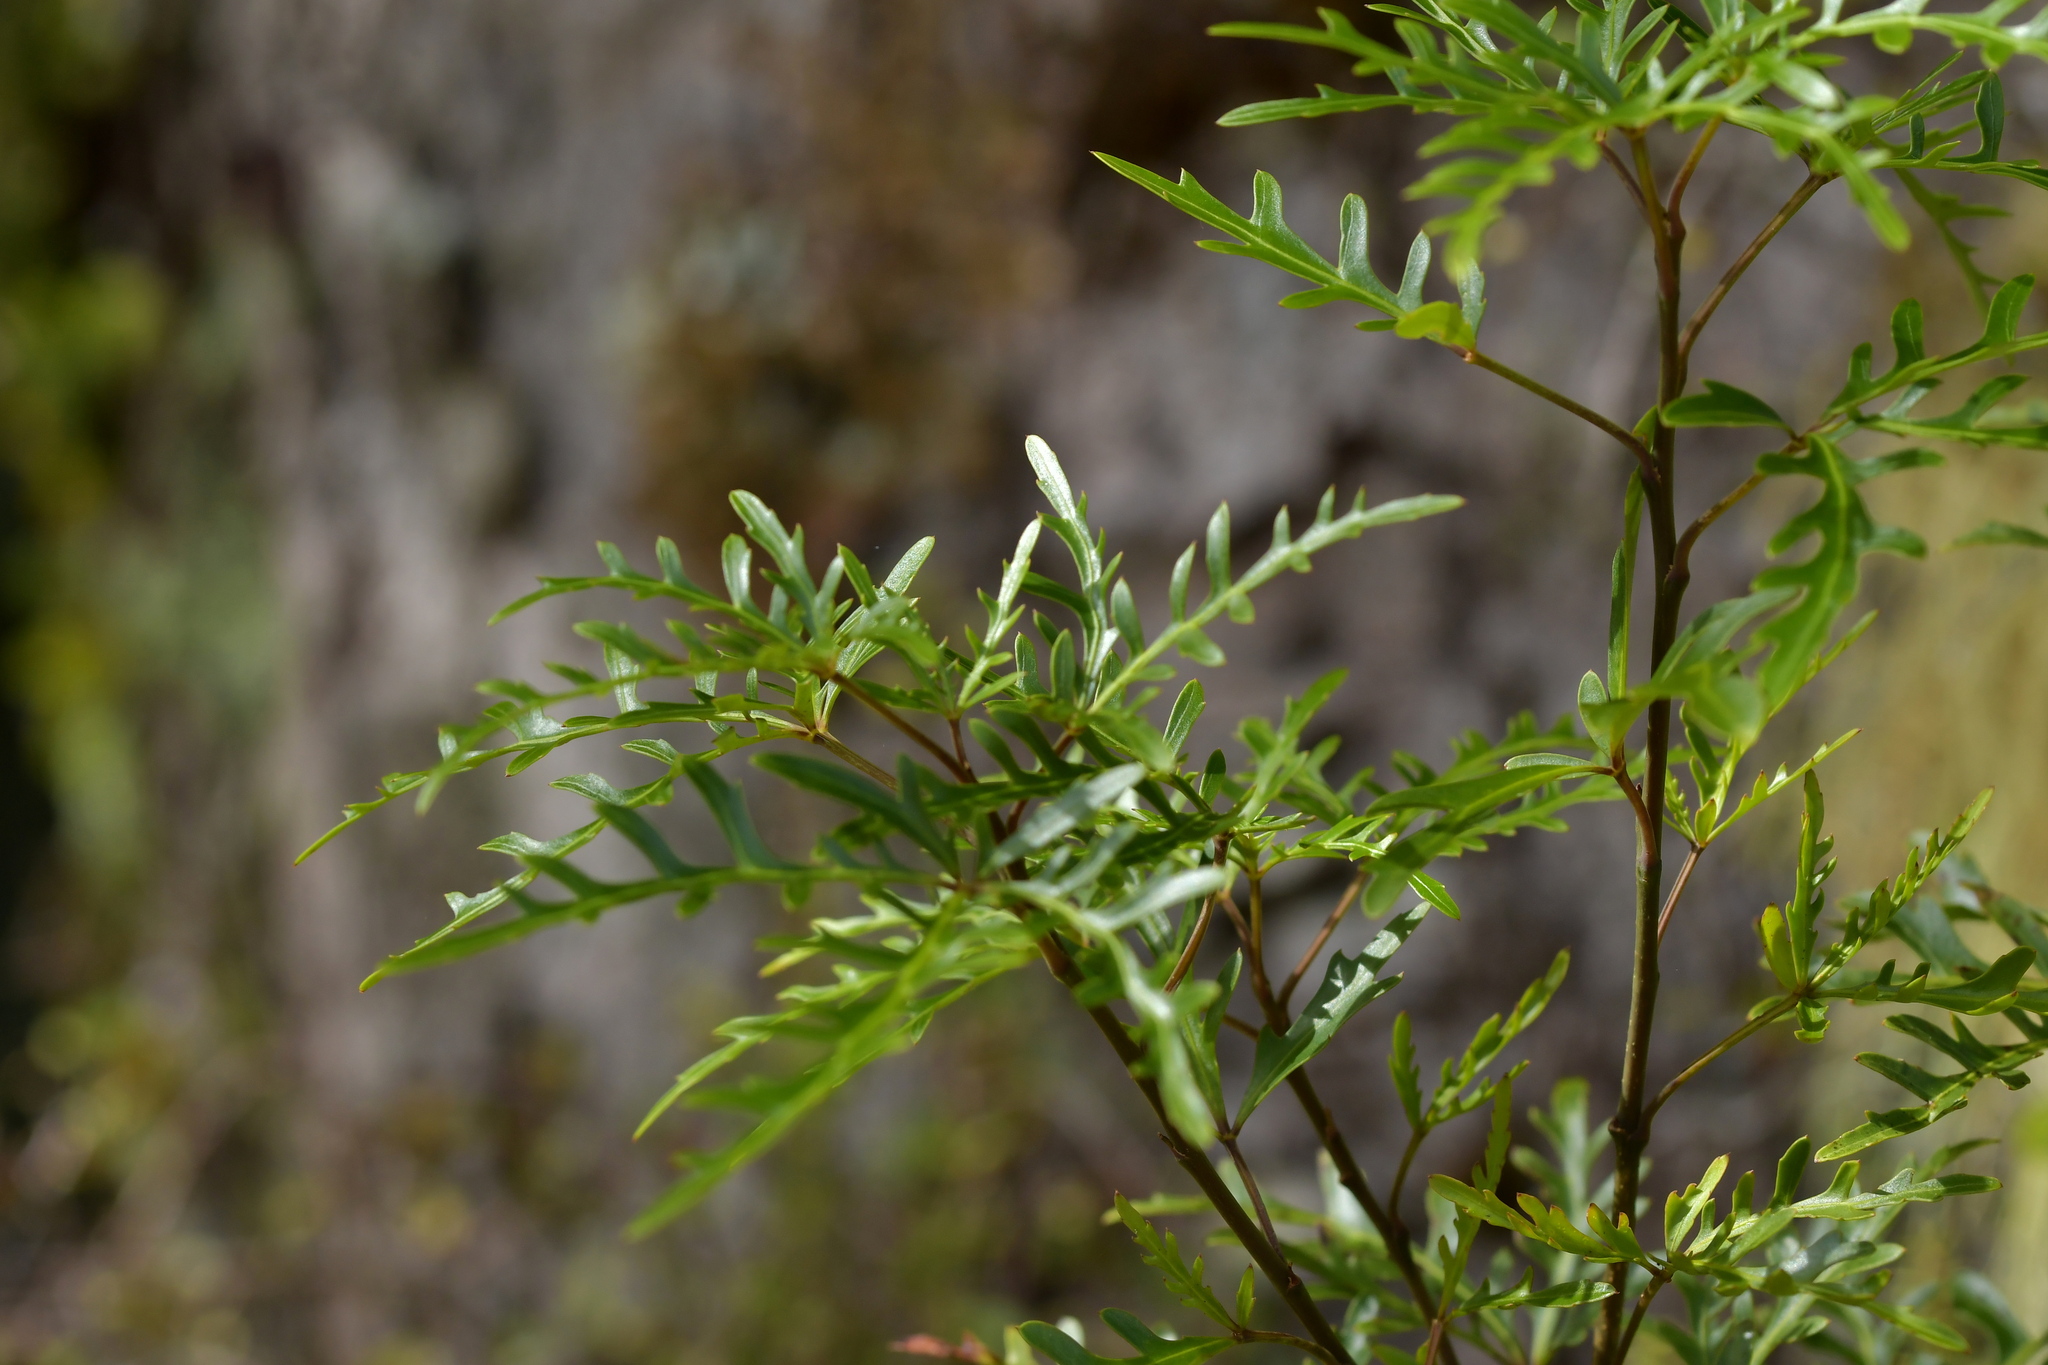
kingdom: Plantae
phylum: Tracheophyta
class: Magnoliopsida
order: Apiales
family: Araliaceae
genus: Raukaua
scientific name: Raukaua simplex
